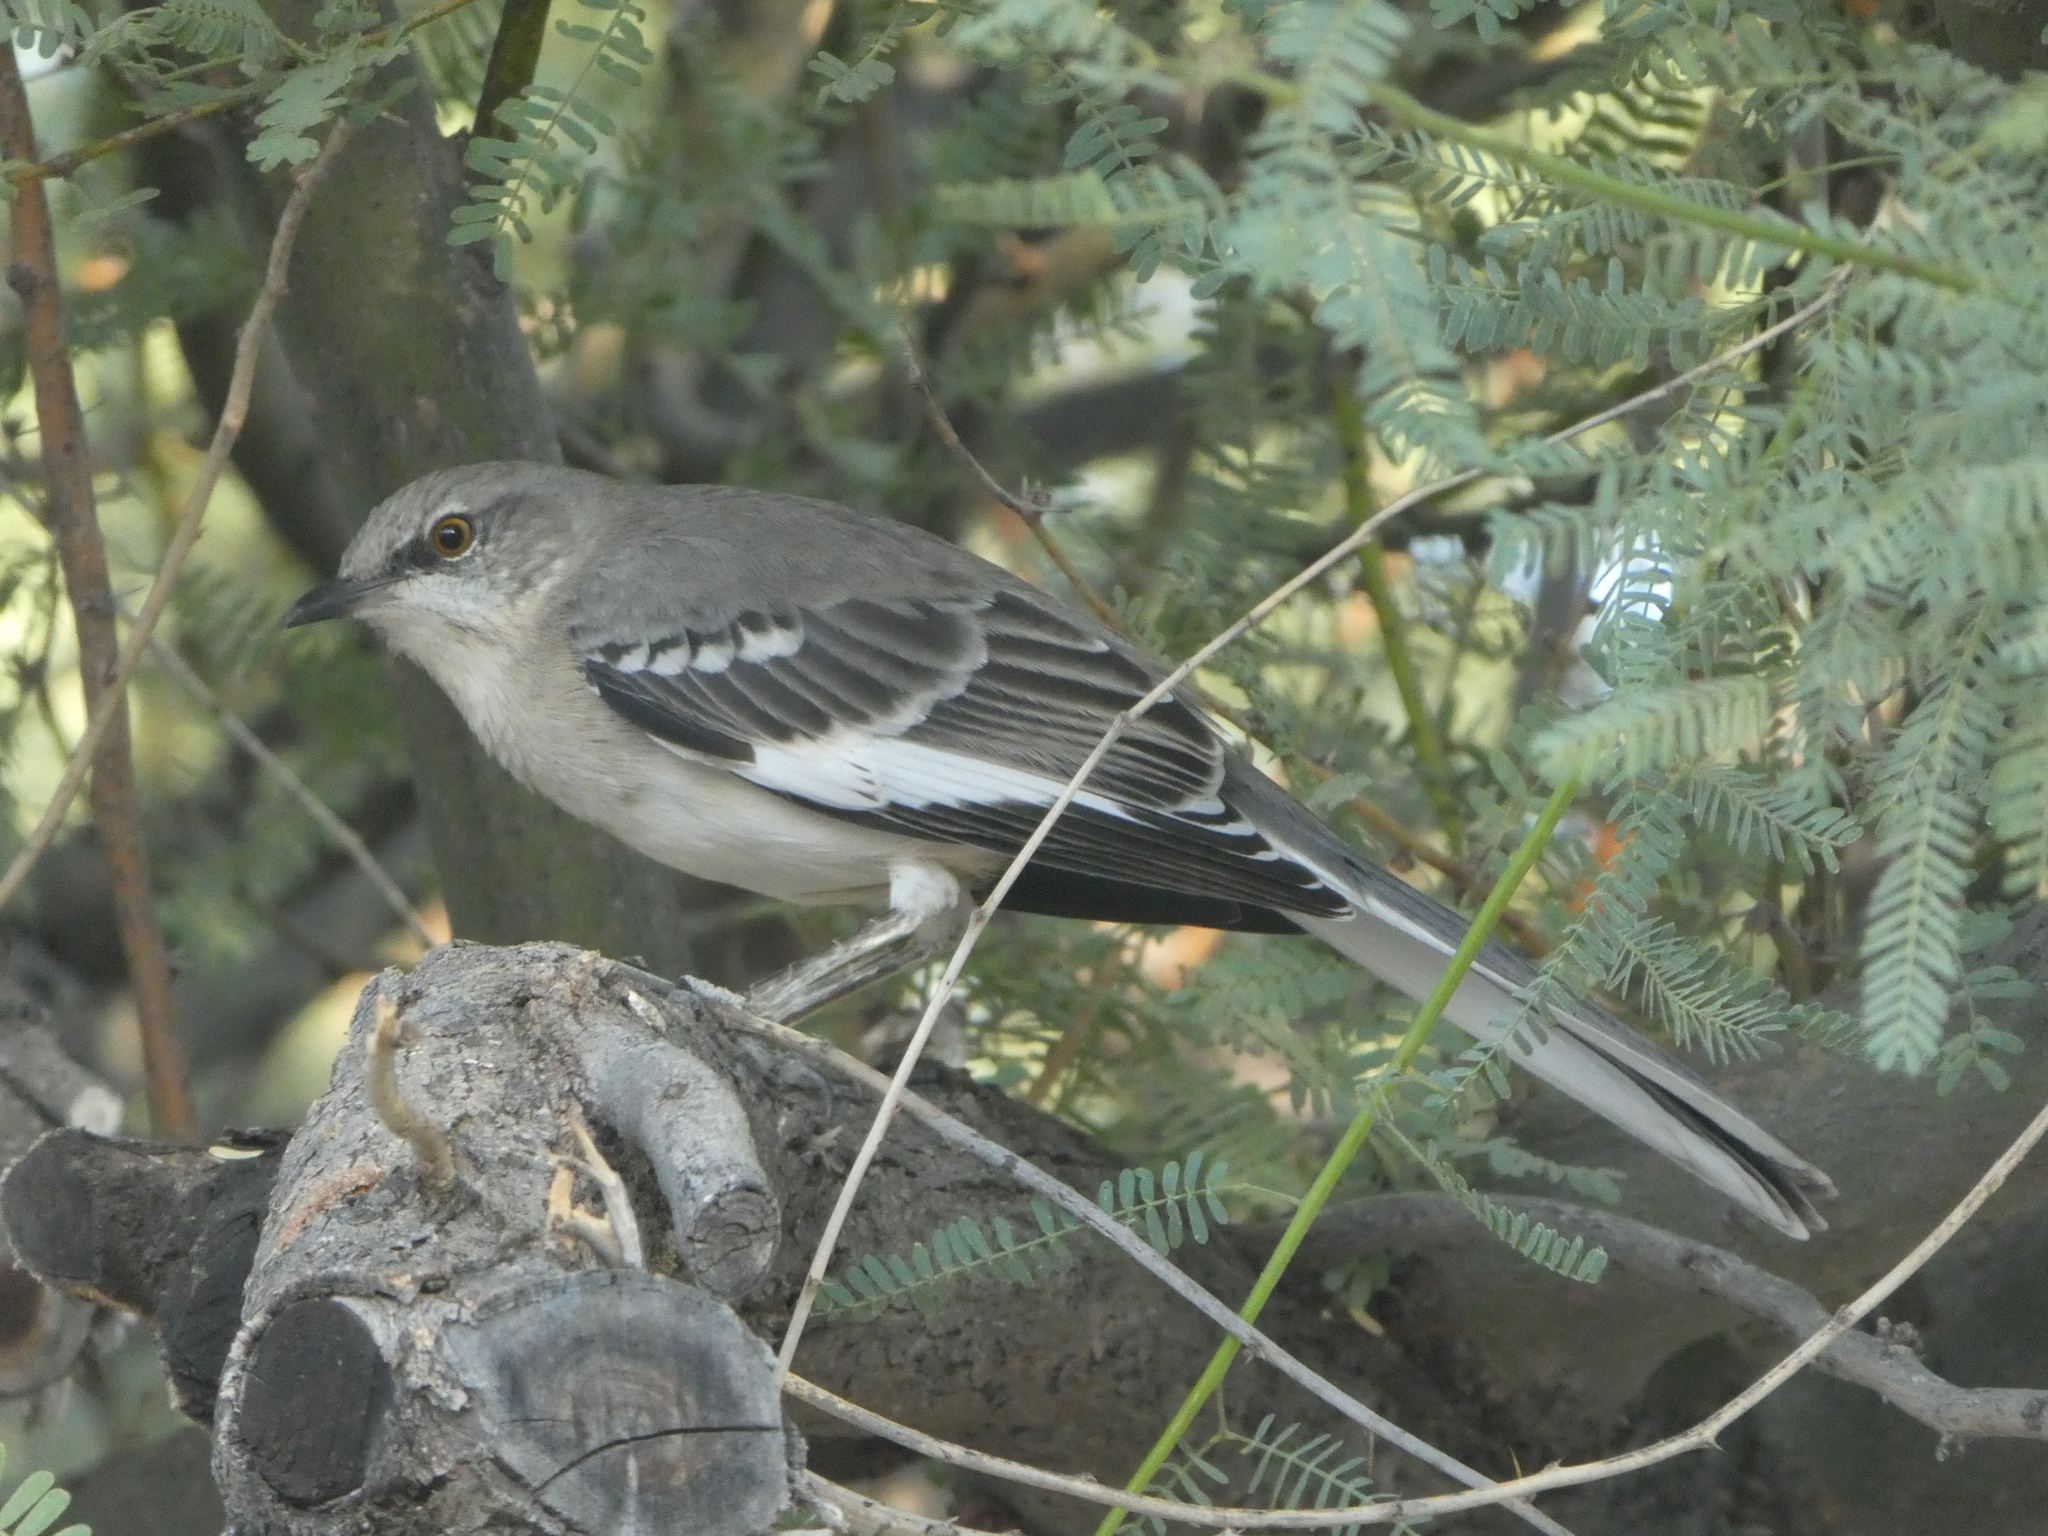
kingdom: Animalia
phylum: Chordata
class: Aves
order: Passeriformes
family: Mimidae
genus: Mimus
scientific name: Mimus polyglottos
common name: Northern mockingbird
